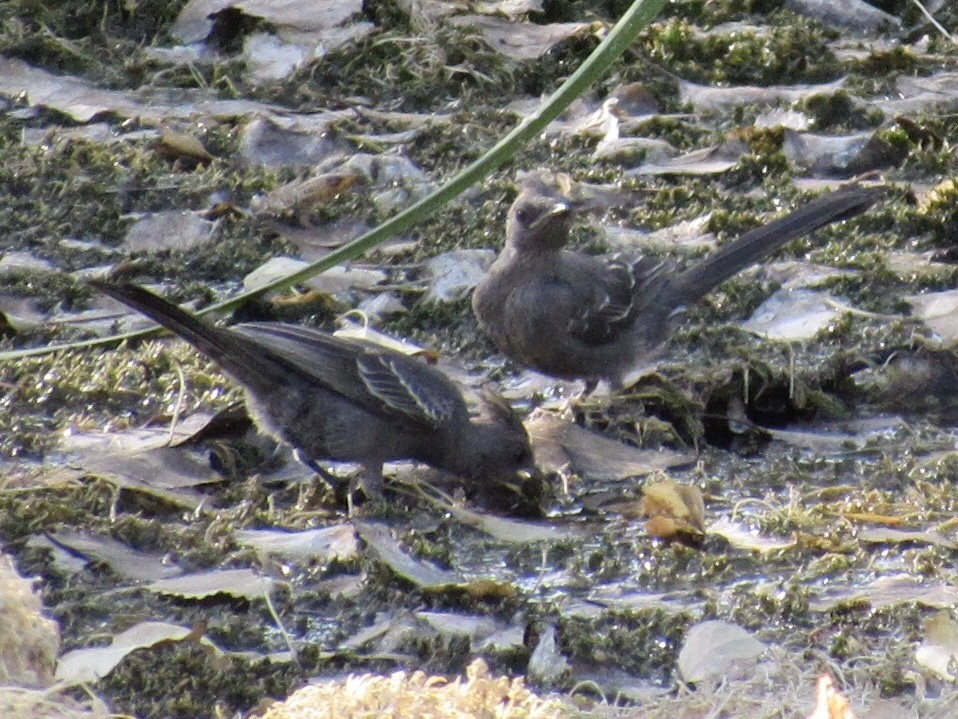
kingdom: Animalia
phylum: Chordata
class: Aves
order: Passeriformes
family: Ptilogonatidae
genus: Phainopepla
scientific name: Phainopepla nitens
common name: Phainopepla
